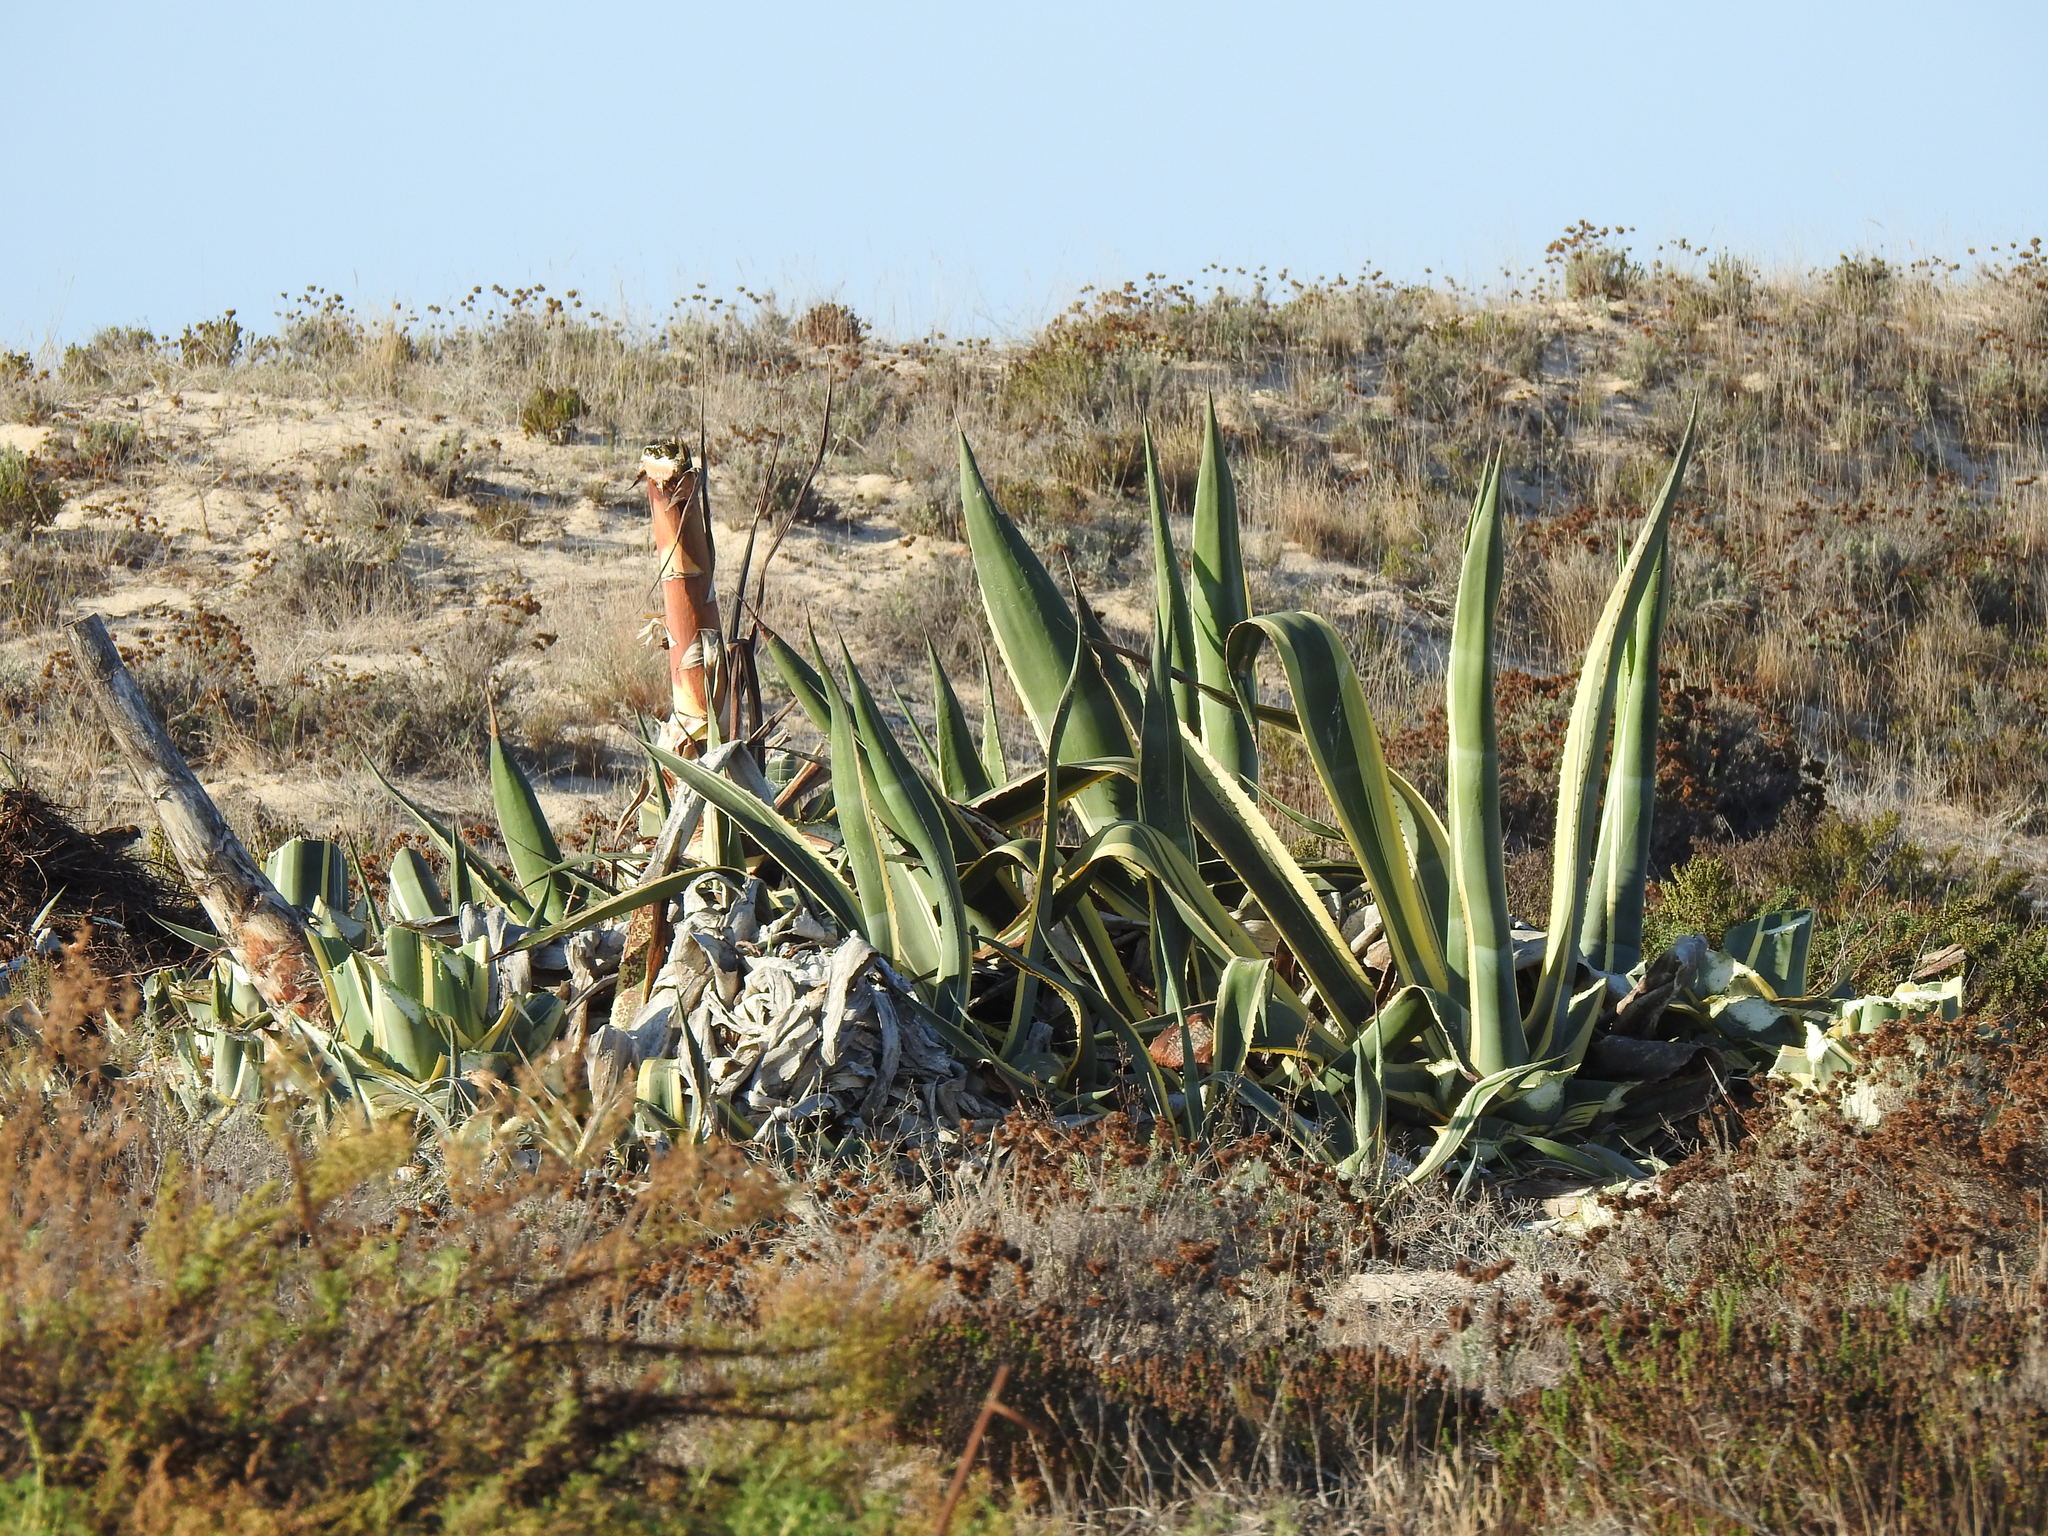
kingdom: Plantae
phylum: Tracheophyta
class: Liliopsida
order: Asparagales
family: Asparagaceae
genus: Agave
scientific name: Agave americana
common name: Centuryplant
